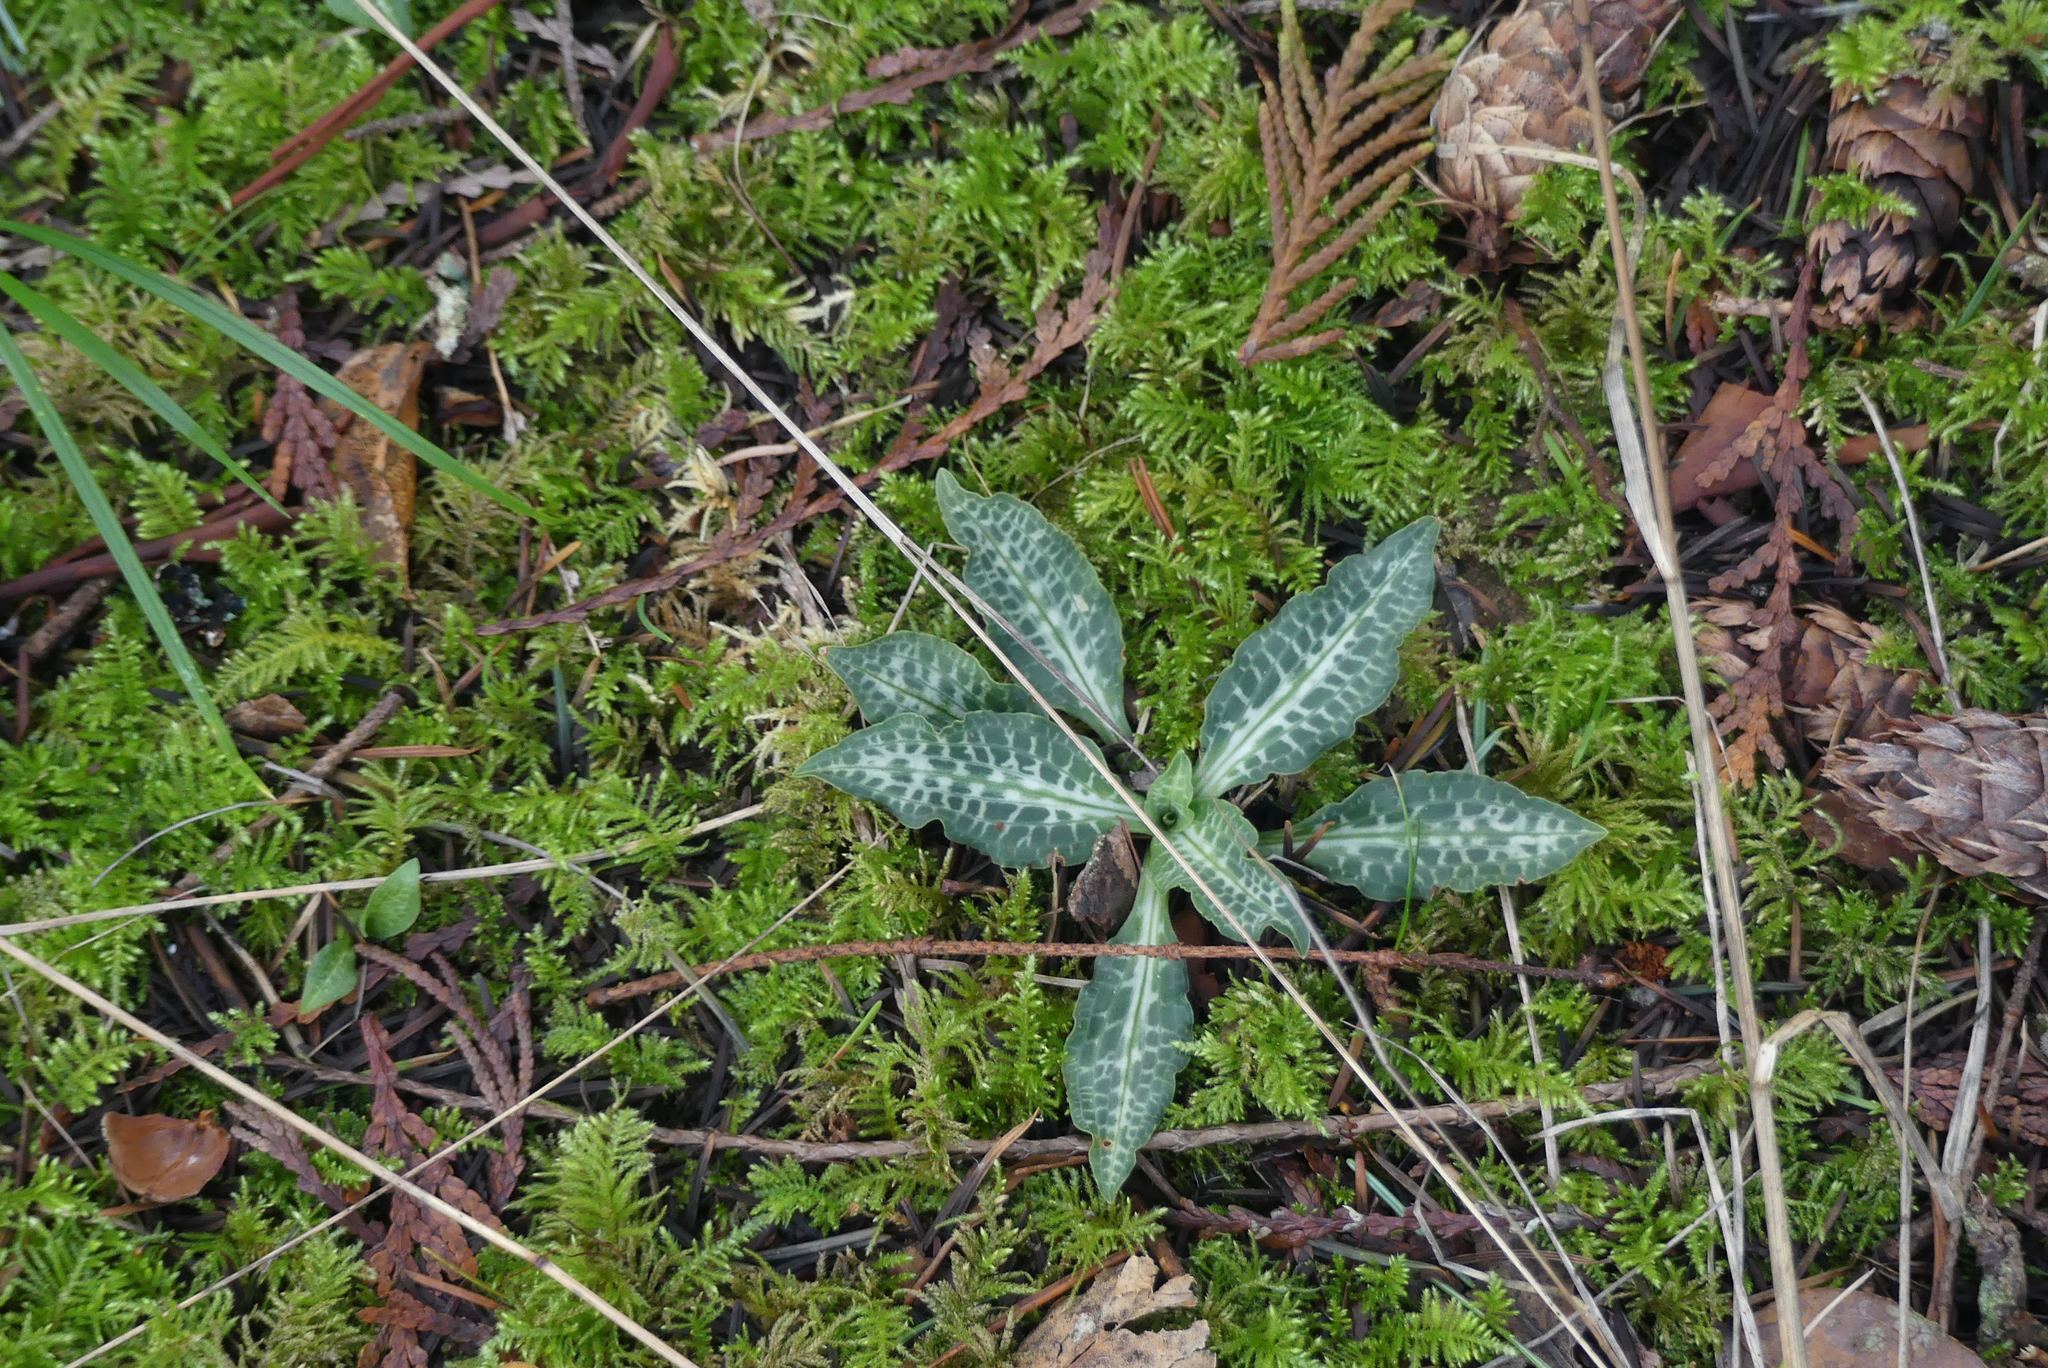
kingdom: Plantae
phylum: Tracheophyta
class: Liliopsida
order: Asparagales
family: Orchidaceae
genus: Goodyera
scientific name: Goodyera oblongifolia
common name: Giant rattlesnake-plantain
